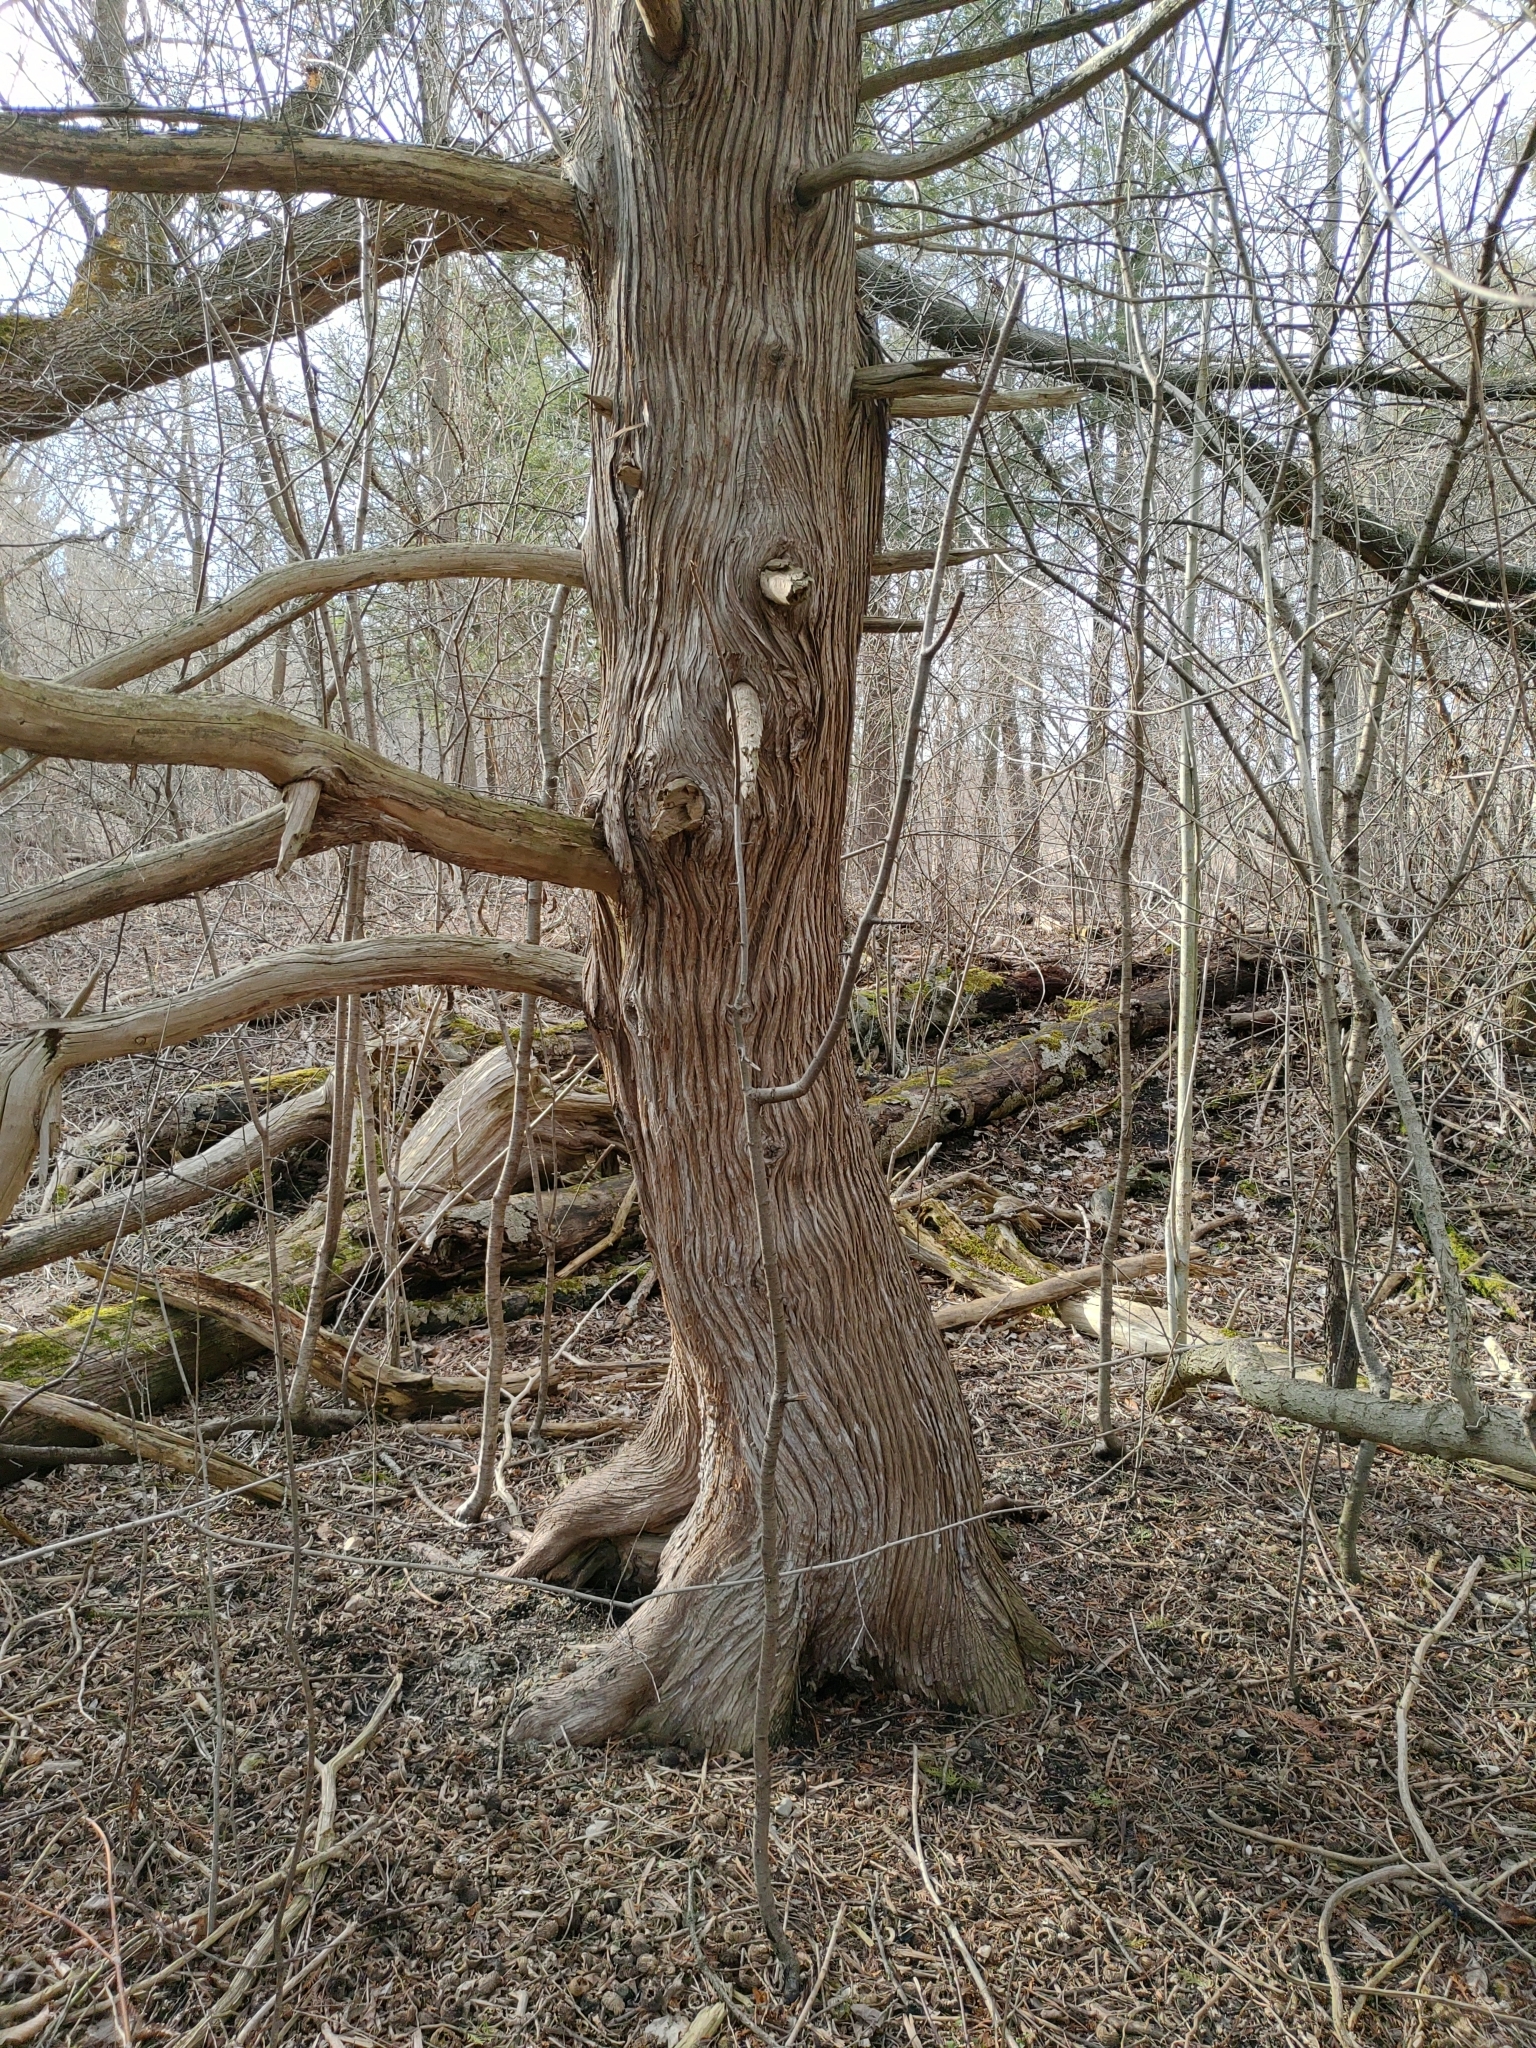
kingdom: Plantae
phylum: Tracheophyta
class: Pinopsida
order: Pinales
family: Cupressaceae
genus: Thuja
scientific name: Thuja occidentalis
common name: Northern white-cedar
